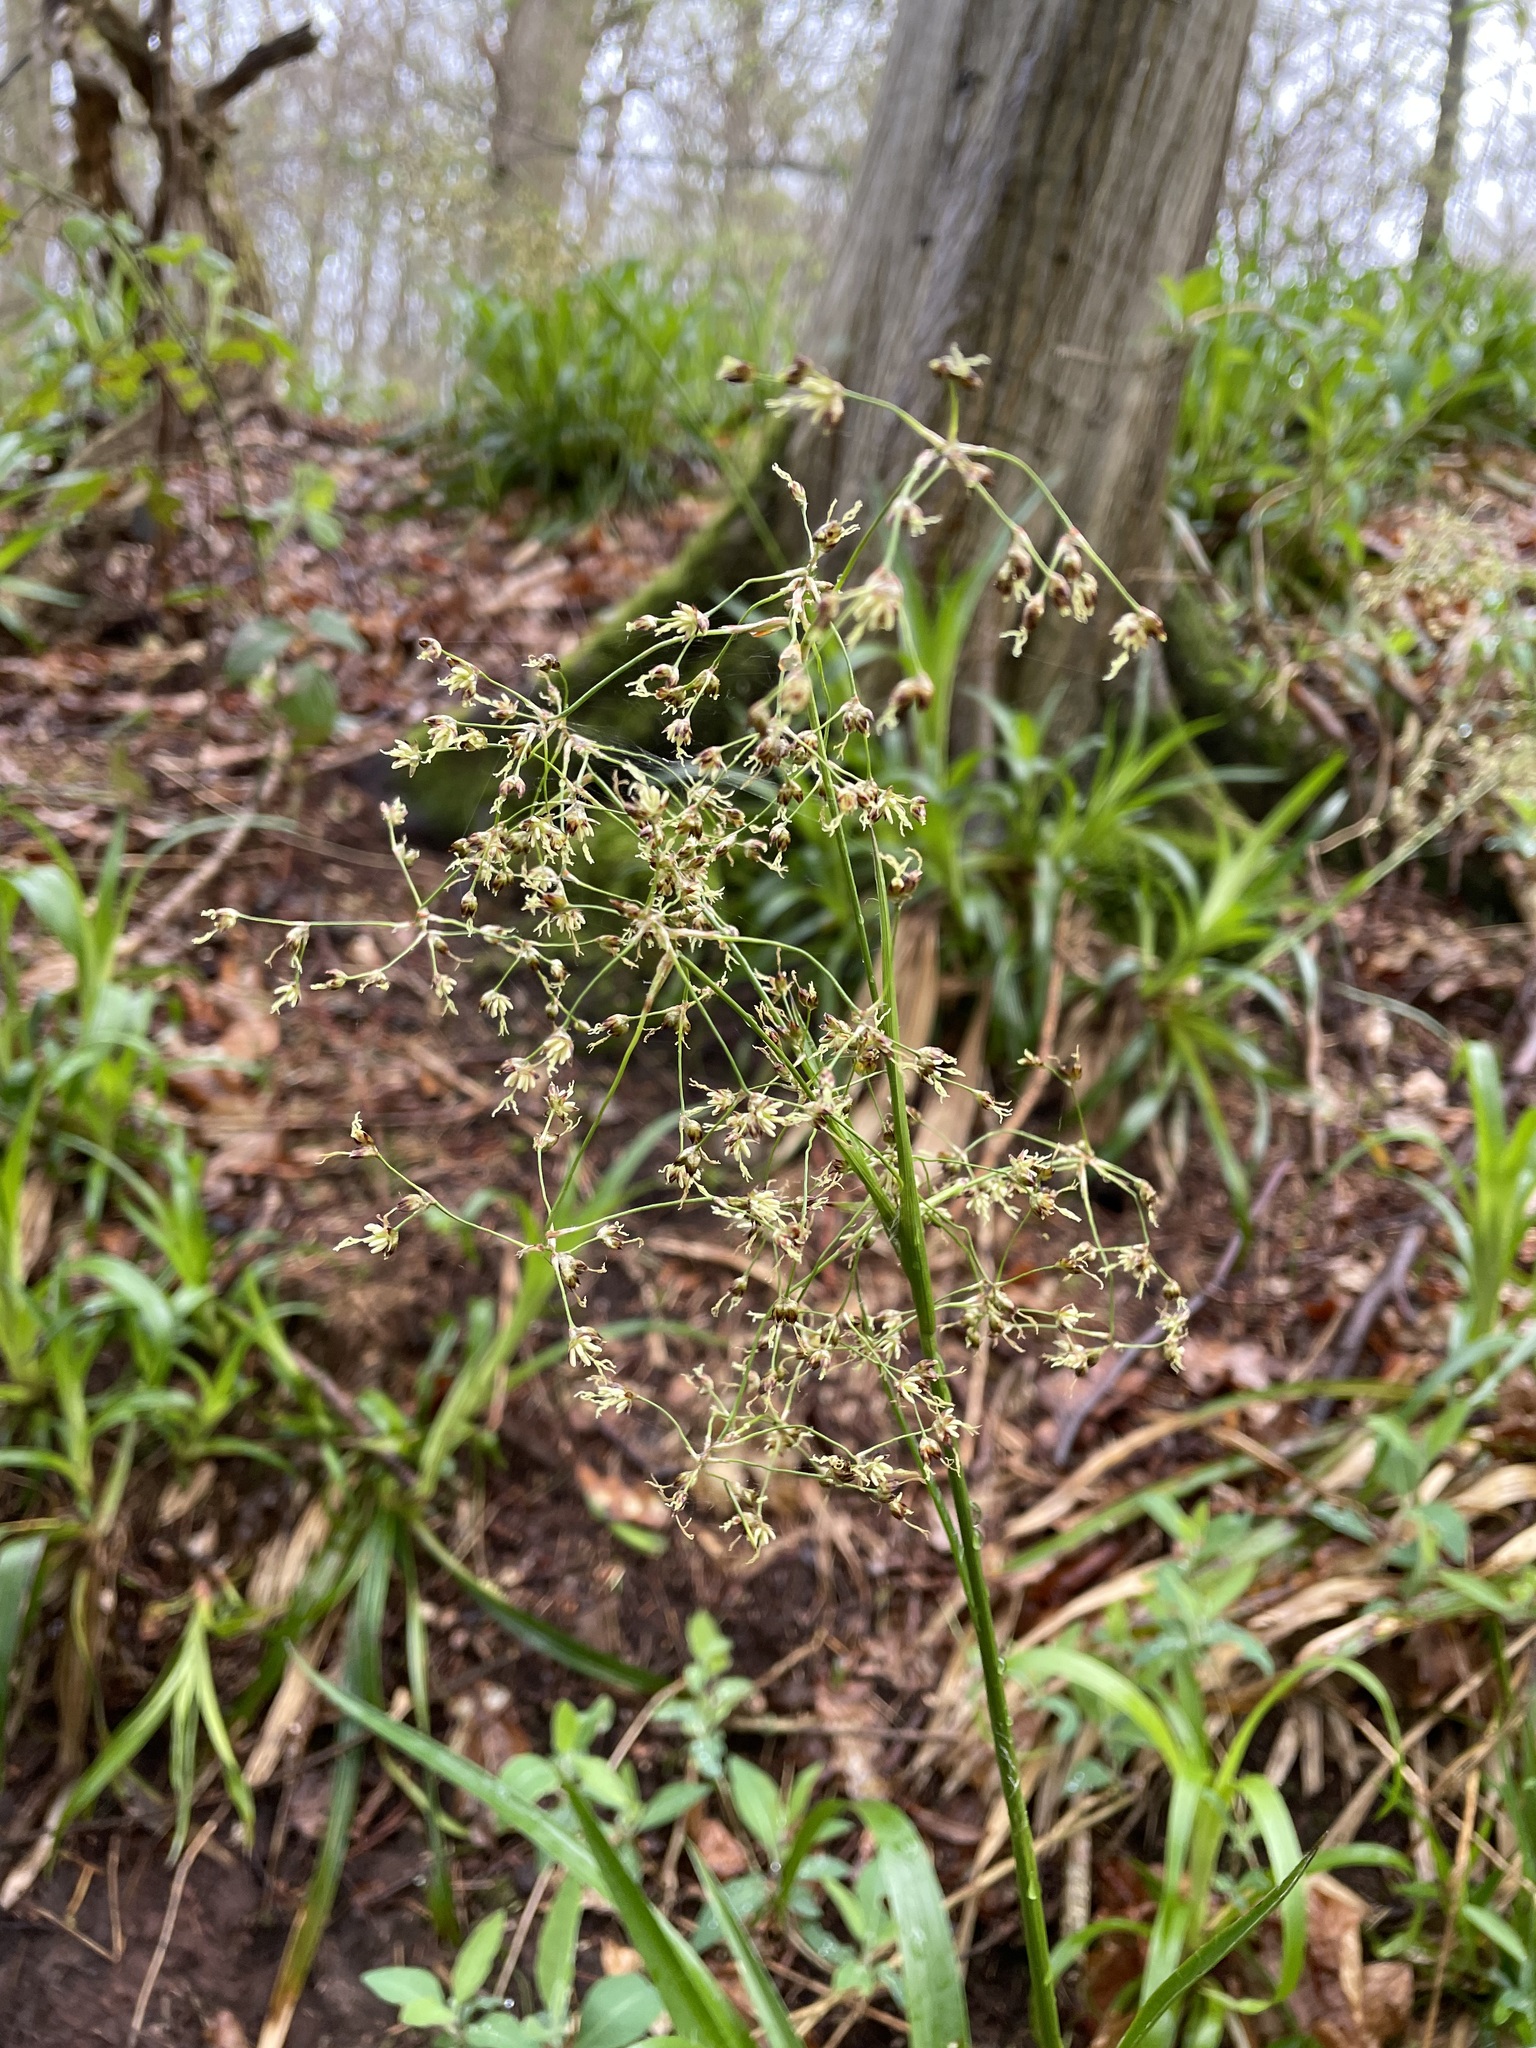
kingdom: Plantae
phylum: Tracheophyta
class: Liliopsida
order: Poales
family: Juncaceae
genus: Luzula
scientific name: Luzula sylvatica
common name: Great wood-rush
